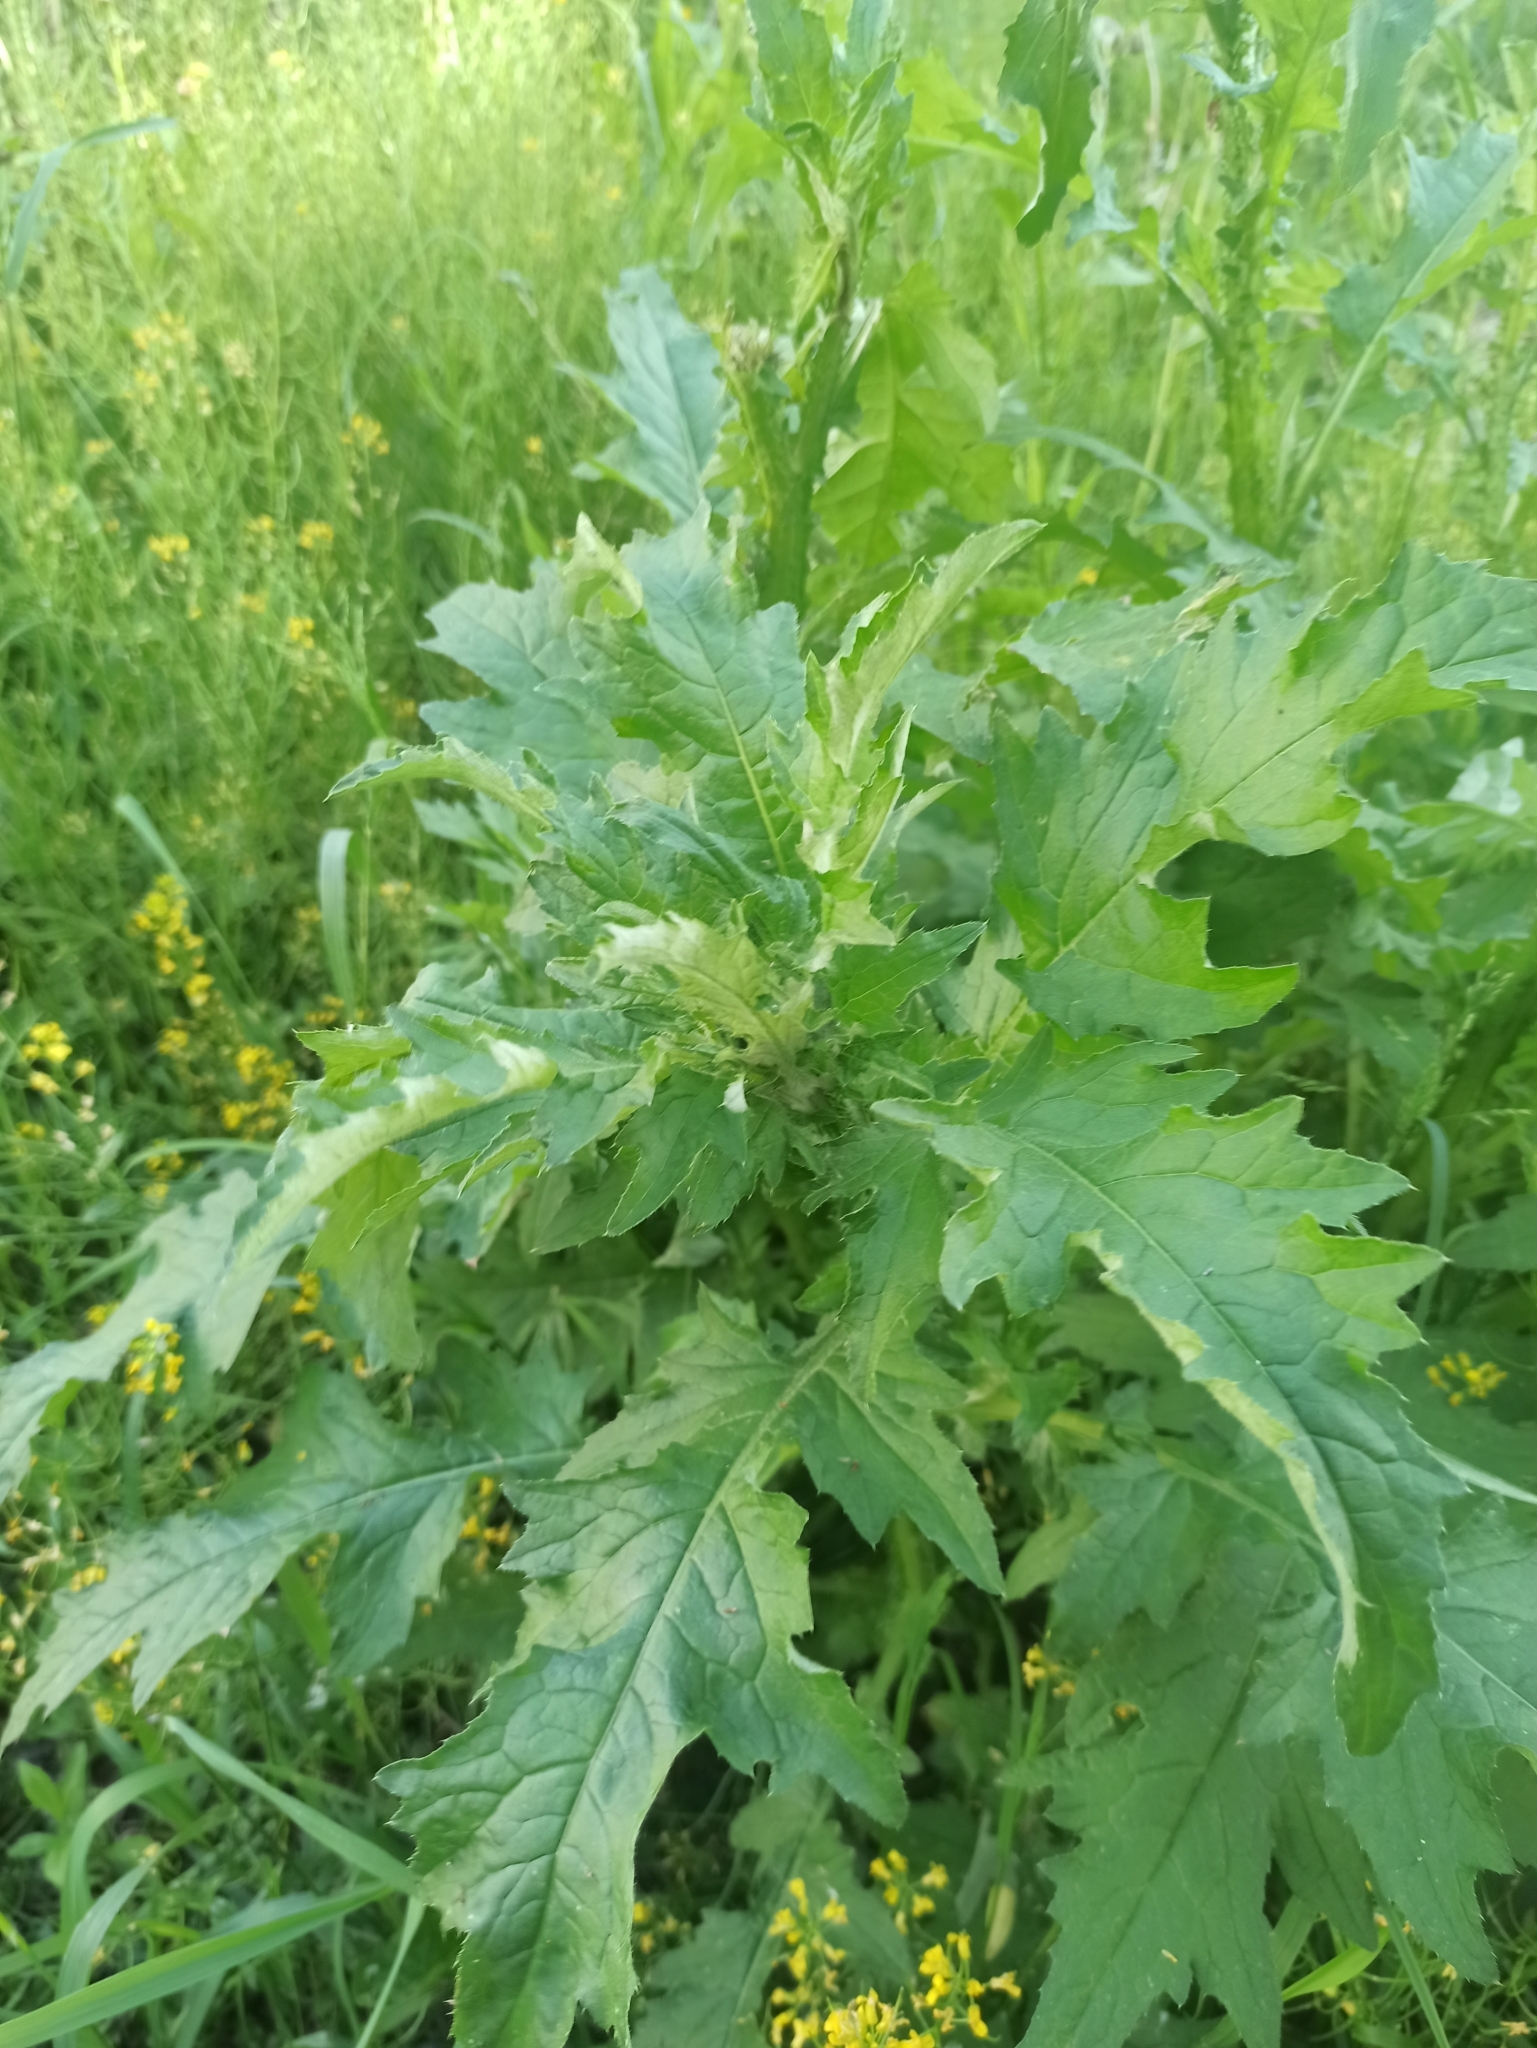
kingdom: Plantae
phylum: Tracheophyta
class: Magnoliopsida
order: Asterales
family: Asteraceae
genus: Carduus
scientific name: Carduus crispus
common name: Welted thistle
